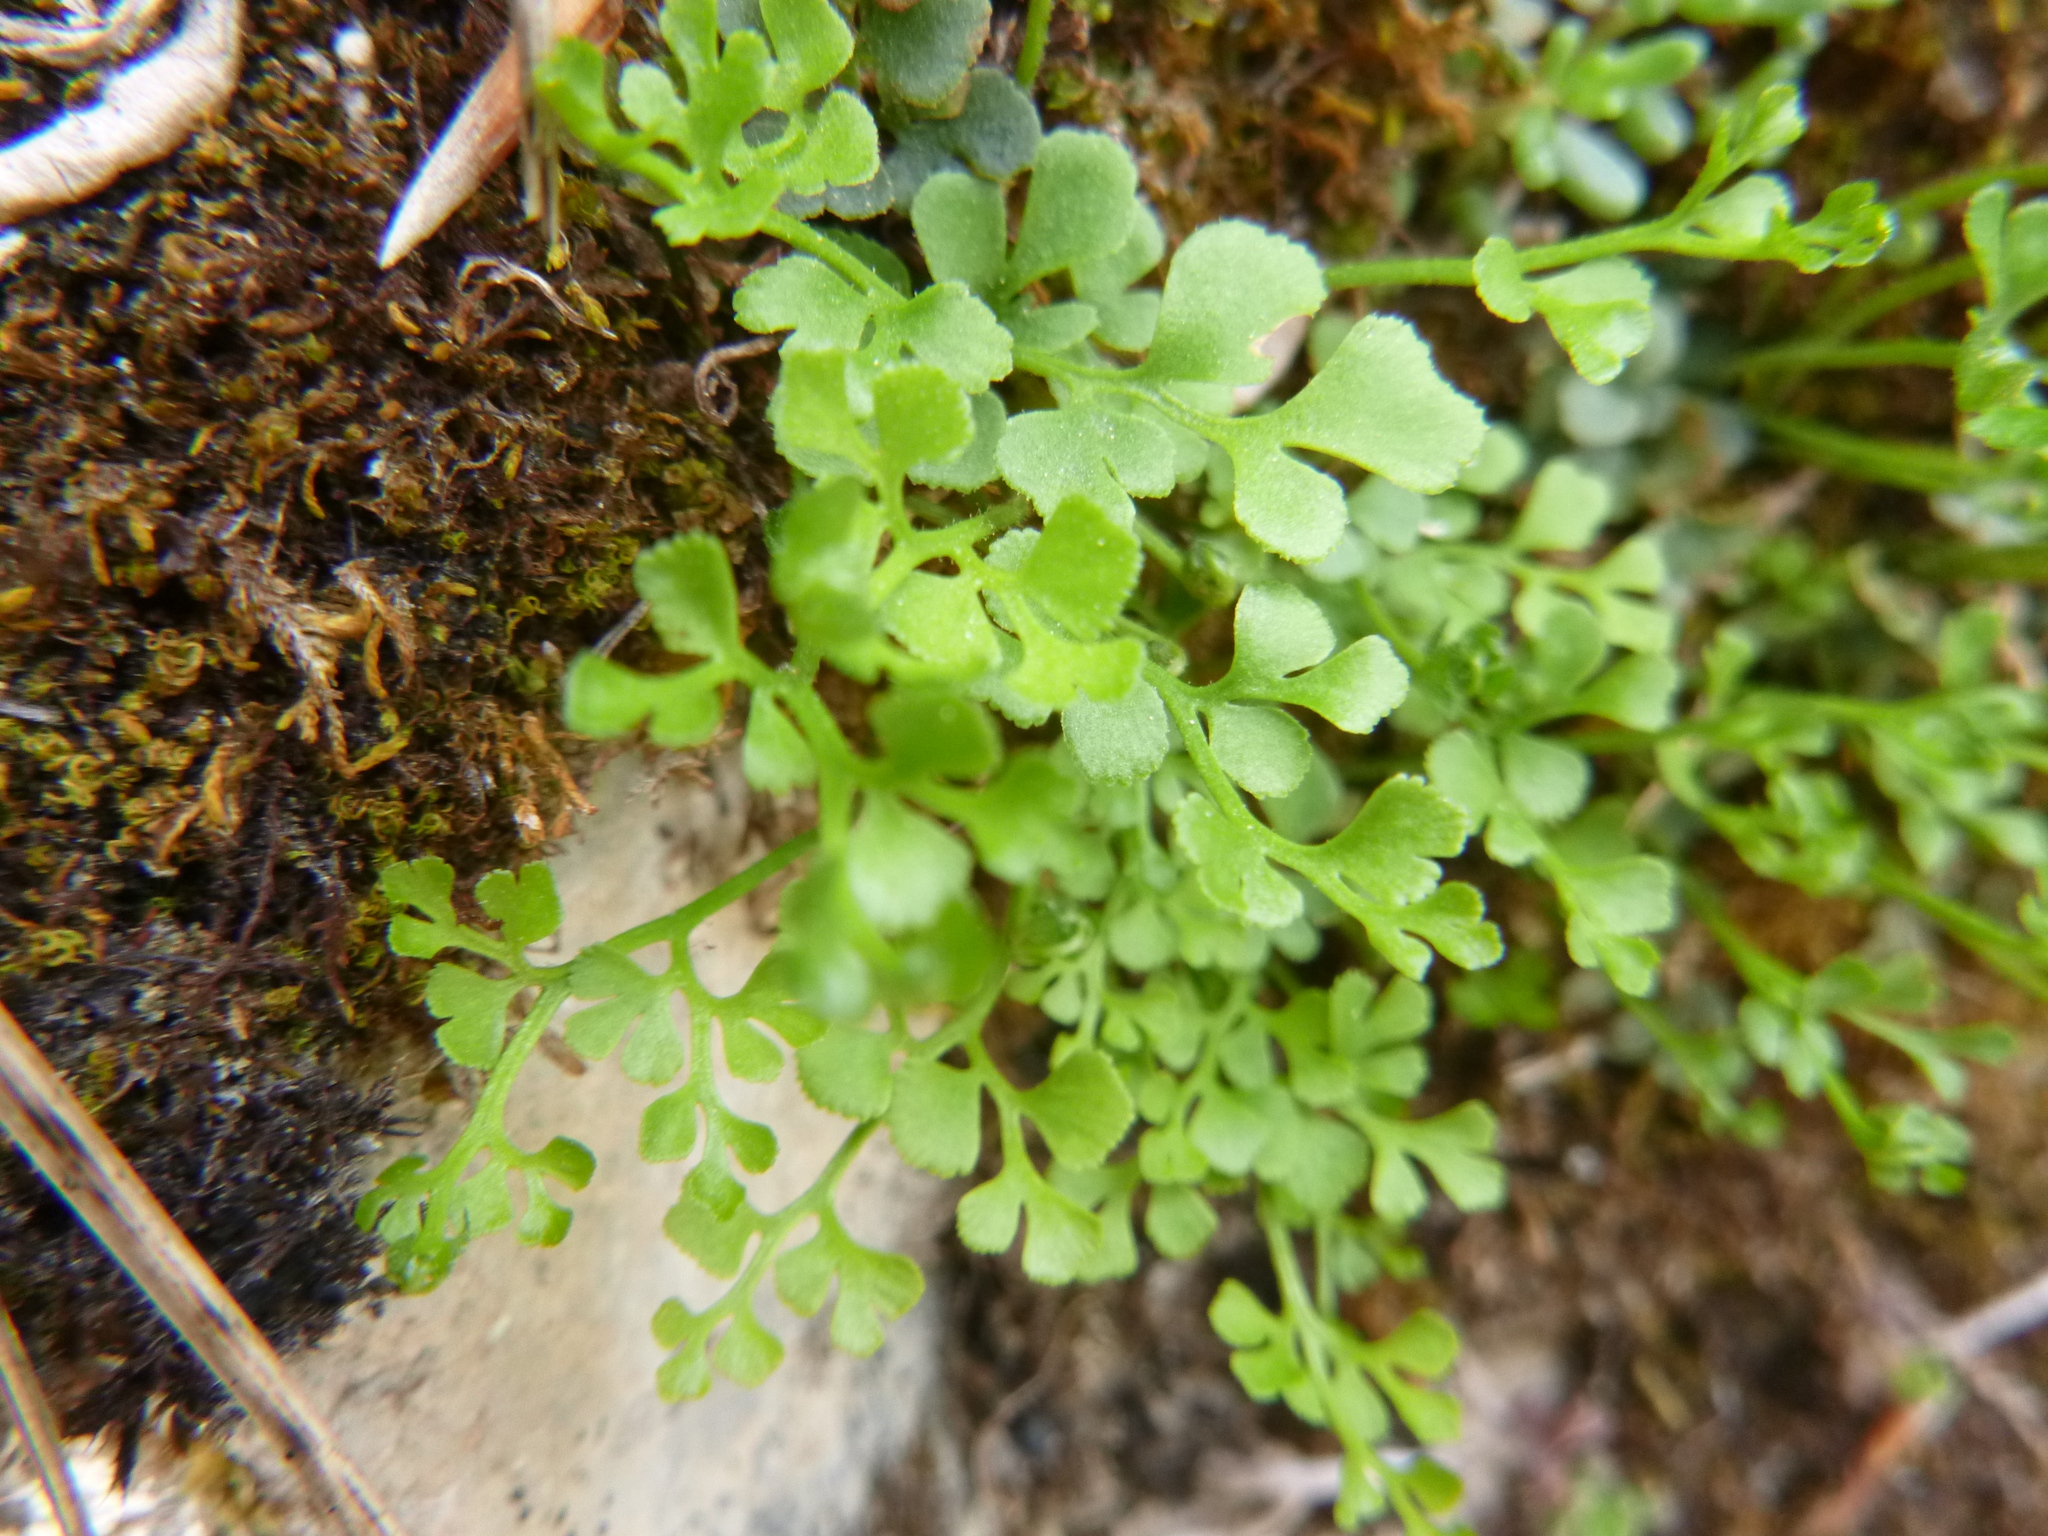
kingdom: Plantae
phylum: Tracheophyta
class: Polypodiopsida
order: Polypodiales
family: Aspleniaceae
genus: Asplenium
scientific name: Asplenium ruta-muraria
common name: Wall-rue
